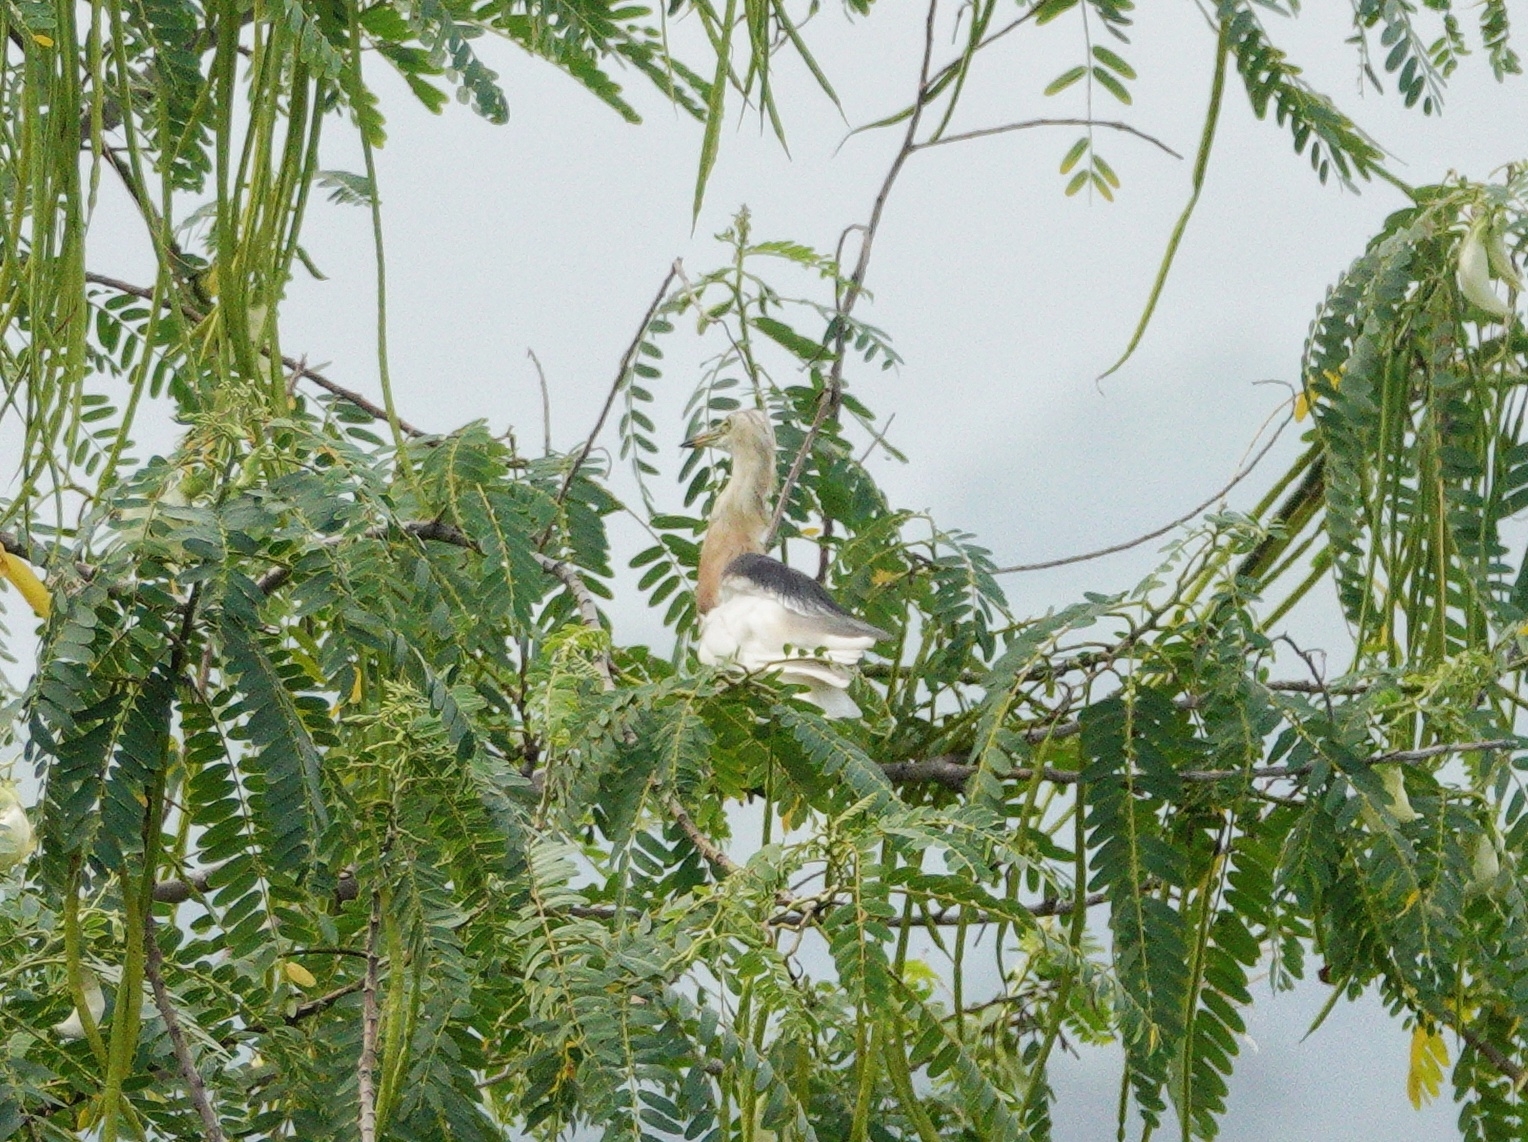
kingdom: Animalia
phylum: Chordata
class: Aves
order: Pelecaniformes
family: Ardeidae
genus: Ardeola
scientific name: Ardeola speciosa
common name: Javan pond heron
